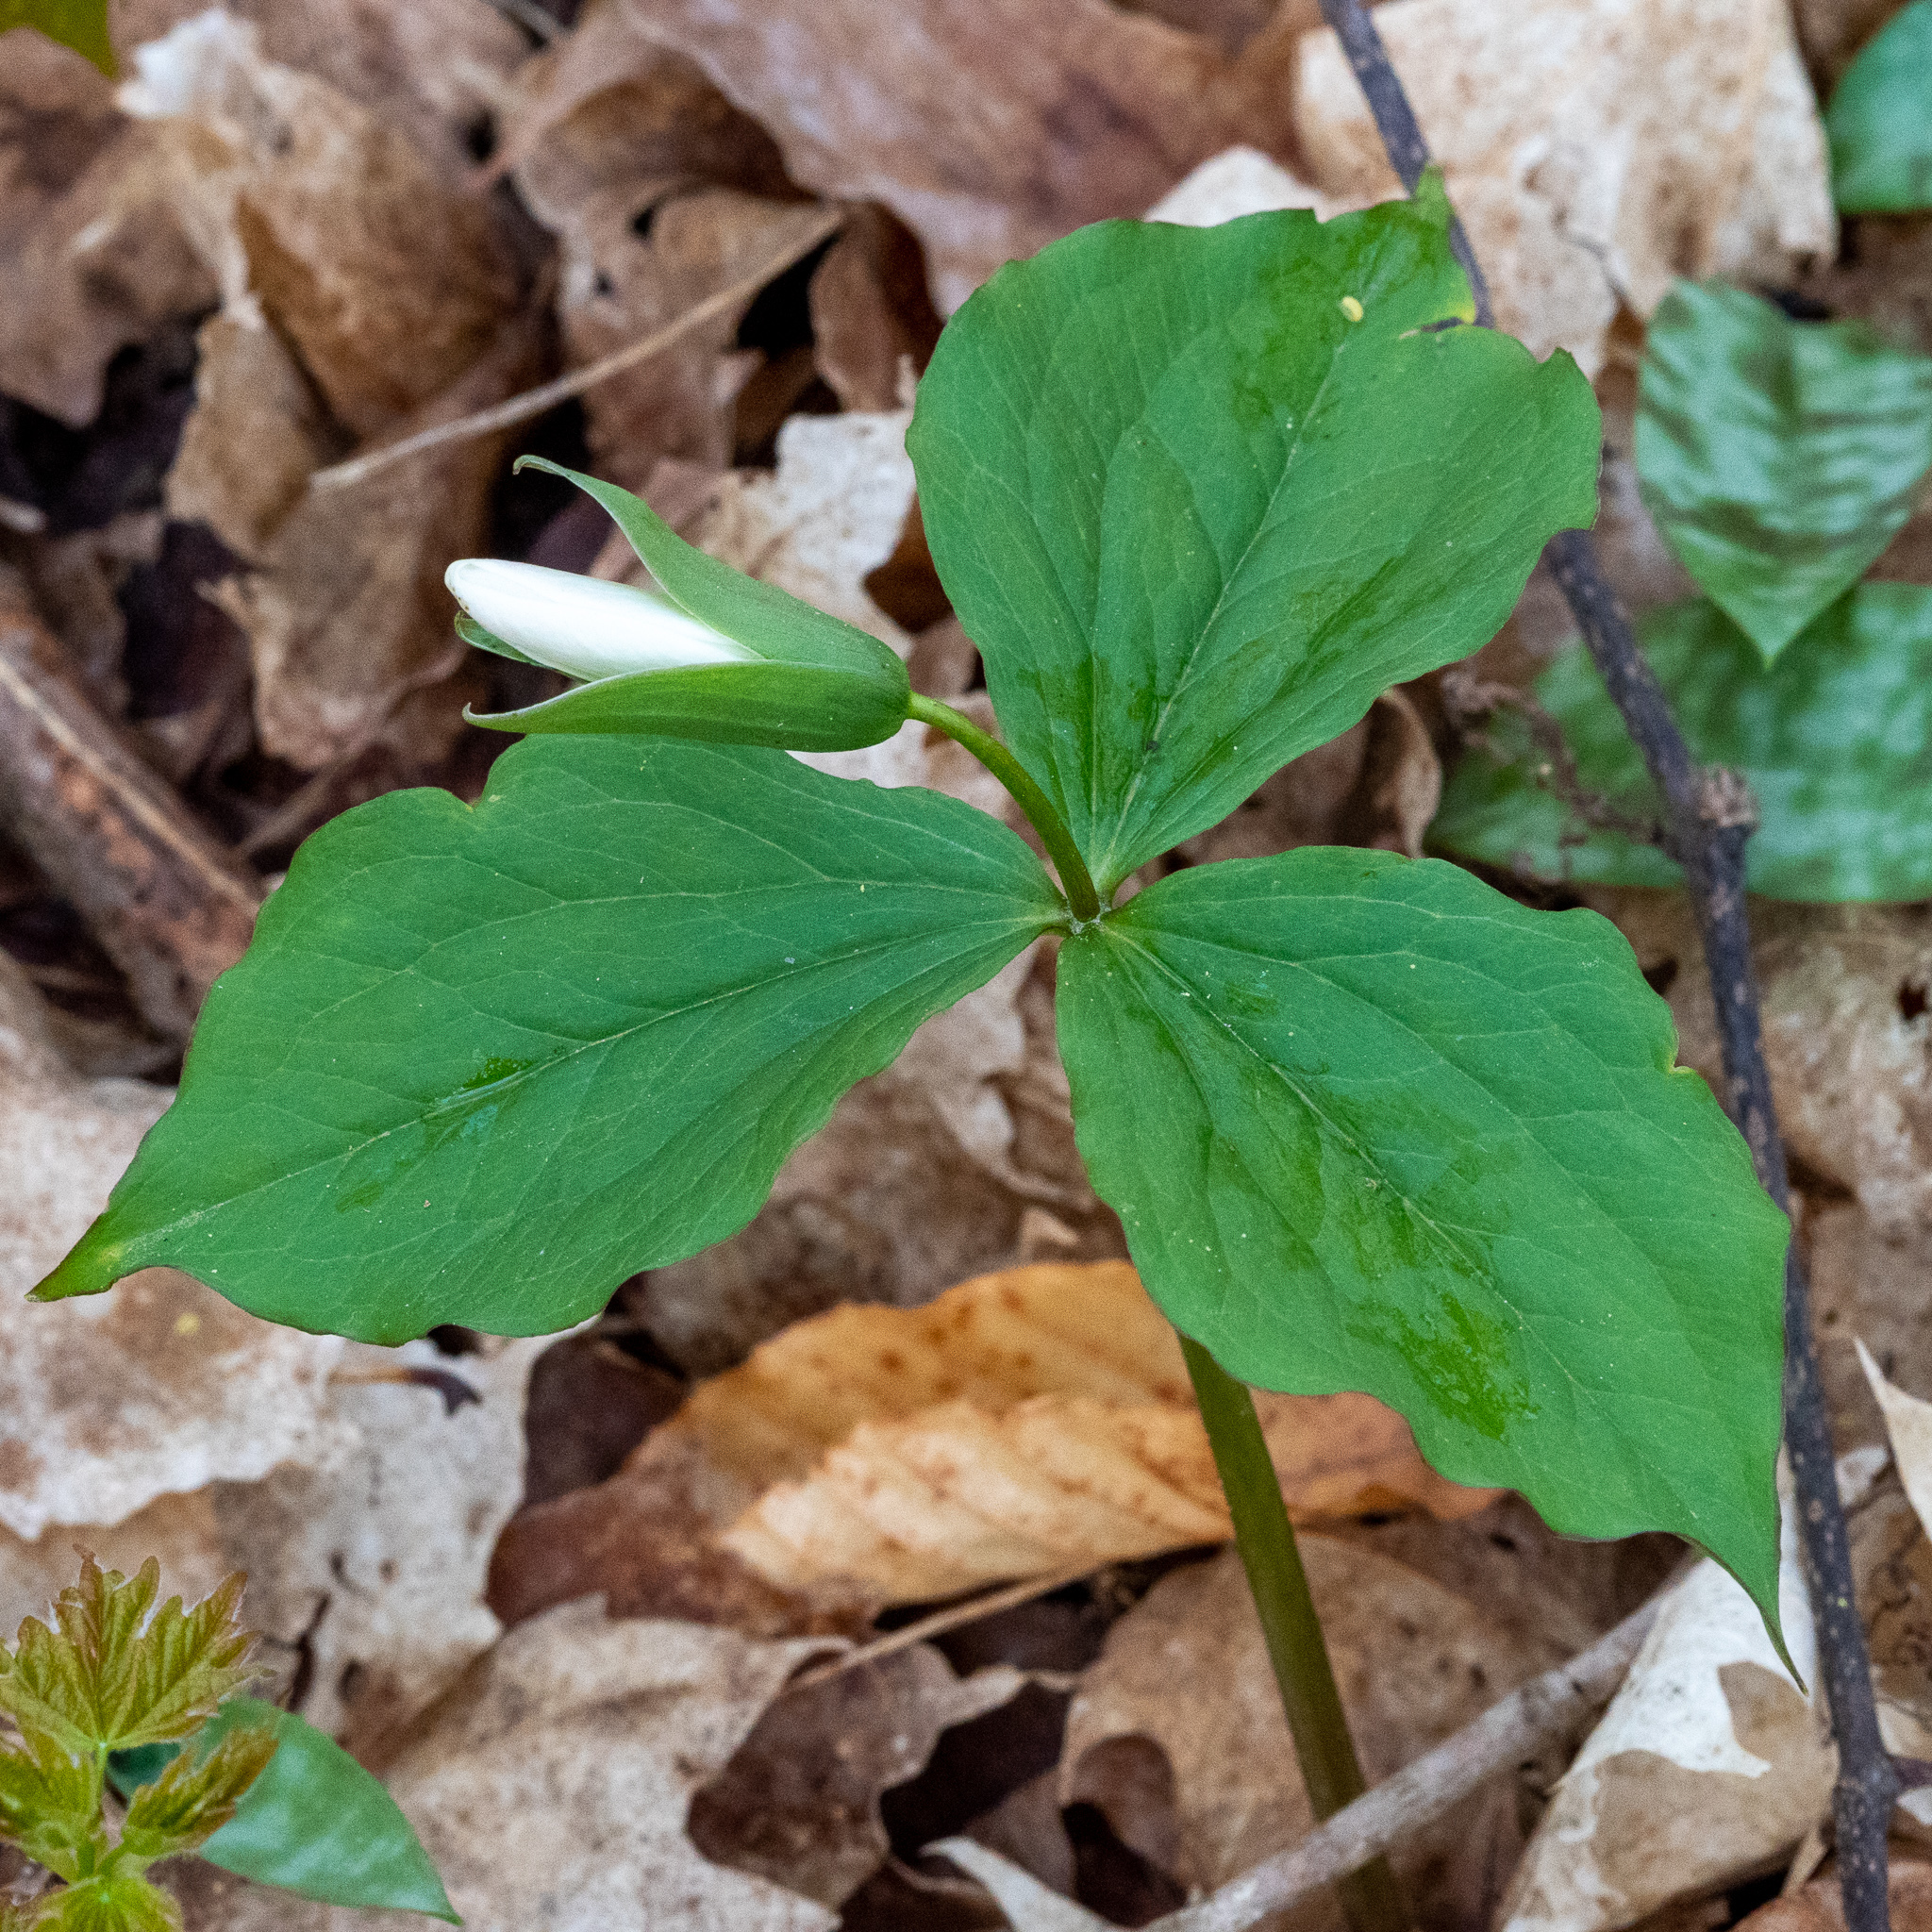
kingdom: Plantae
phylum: Tracheophyta
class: Liliopsida
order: Liliales
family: Melanthiaceae
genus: Trillium
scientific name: Trillium grandiflorum
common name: Great white trillium
